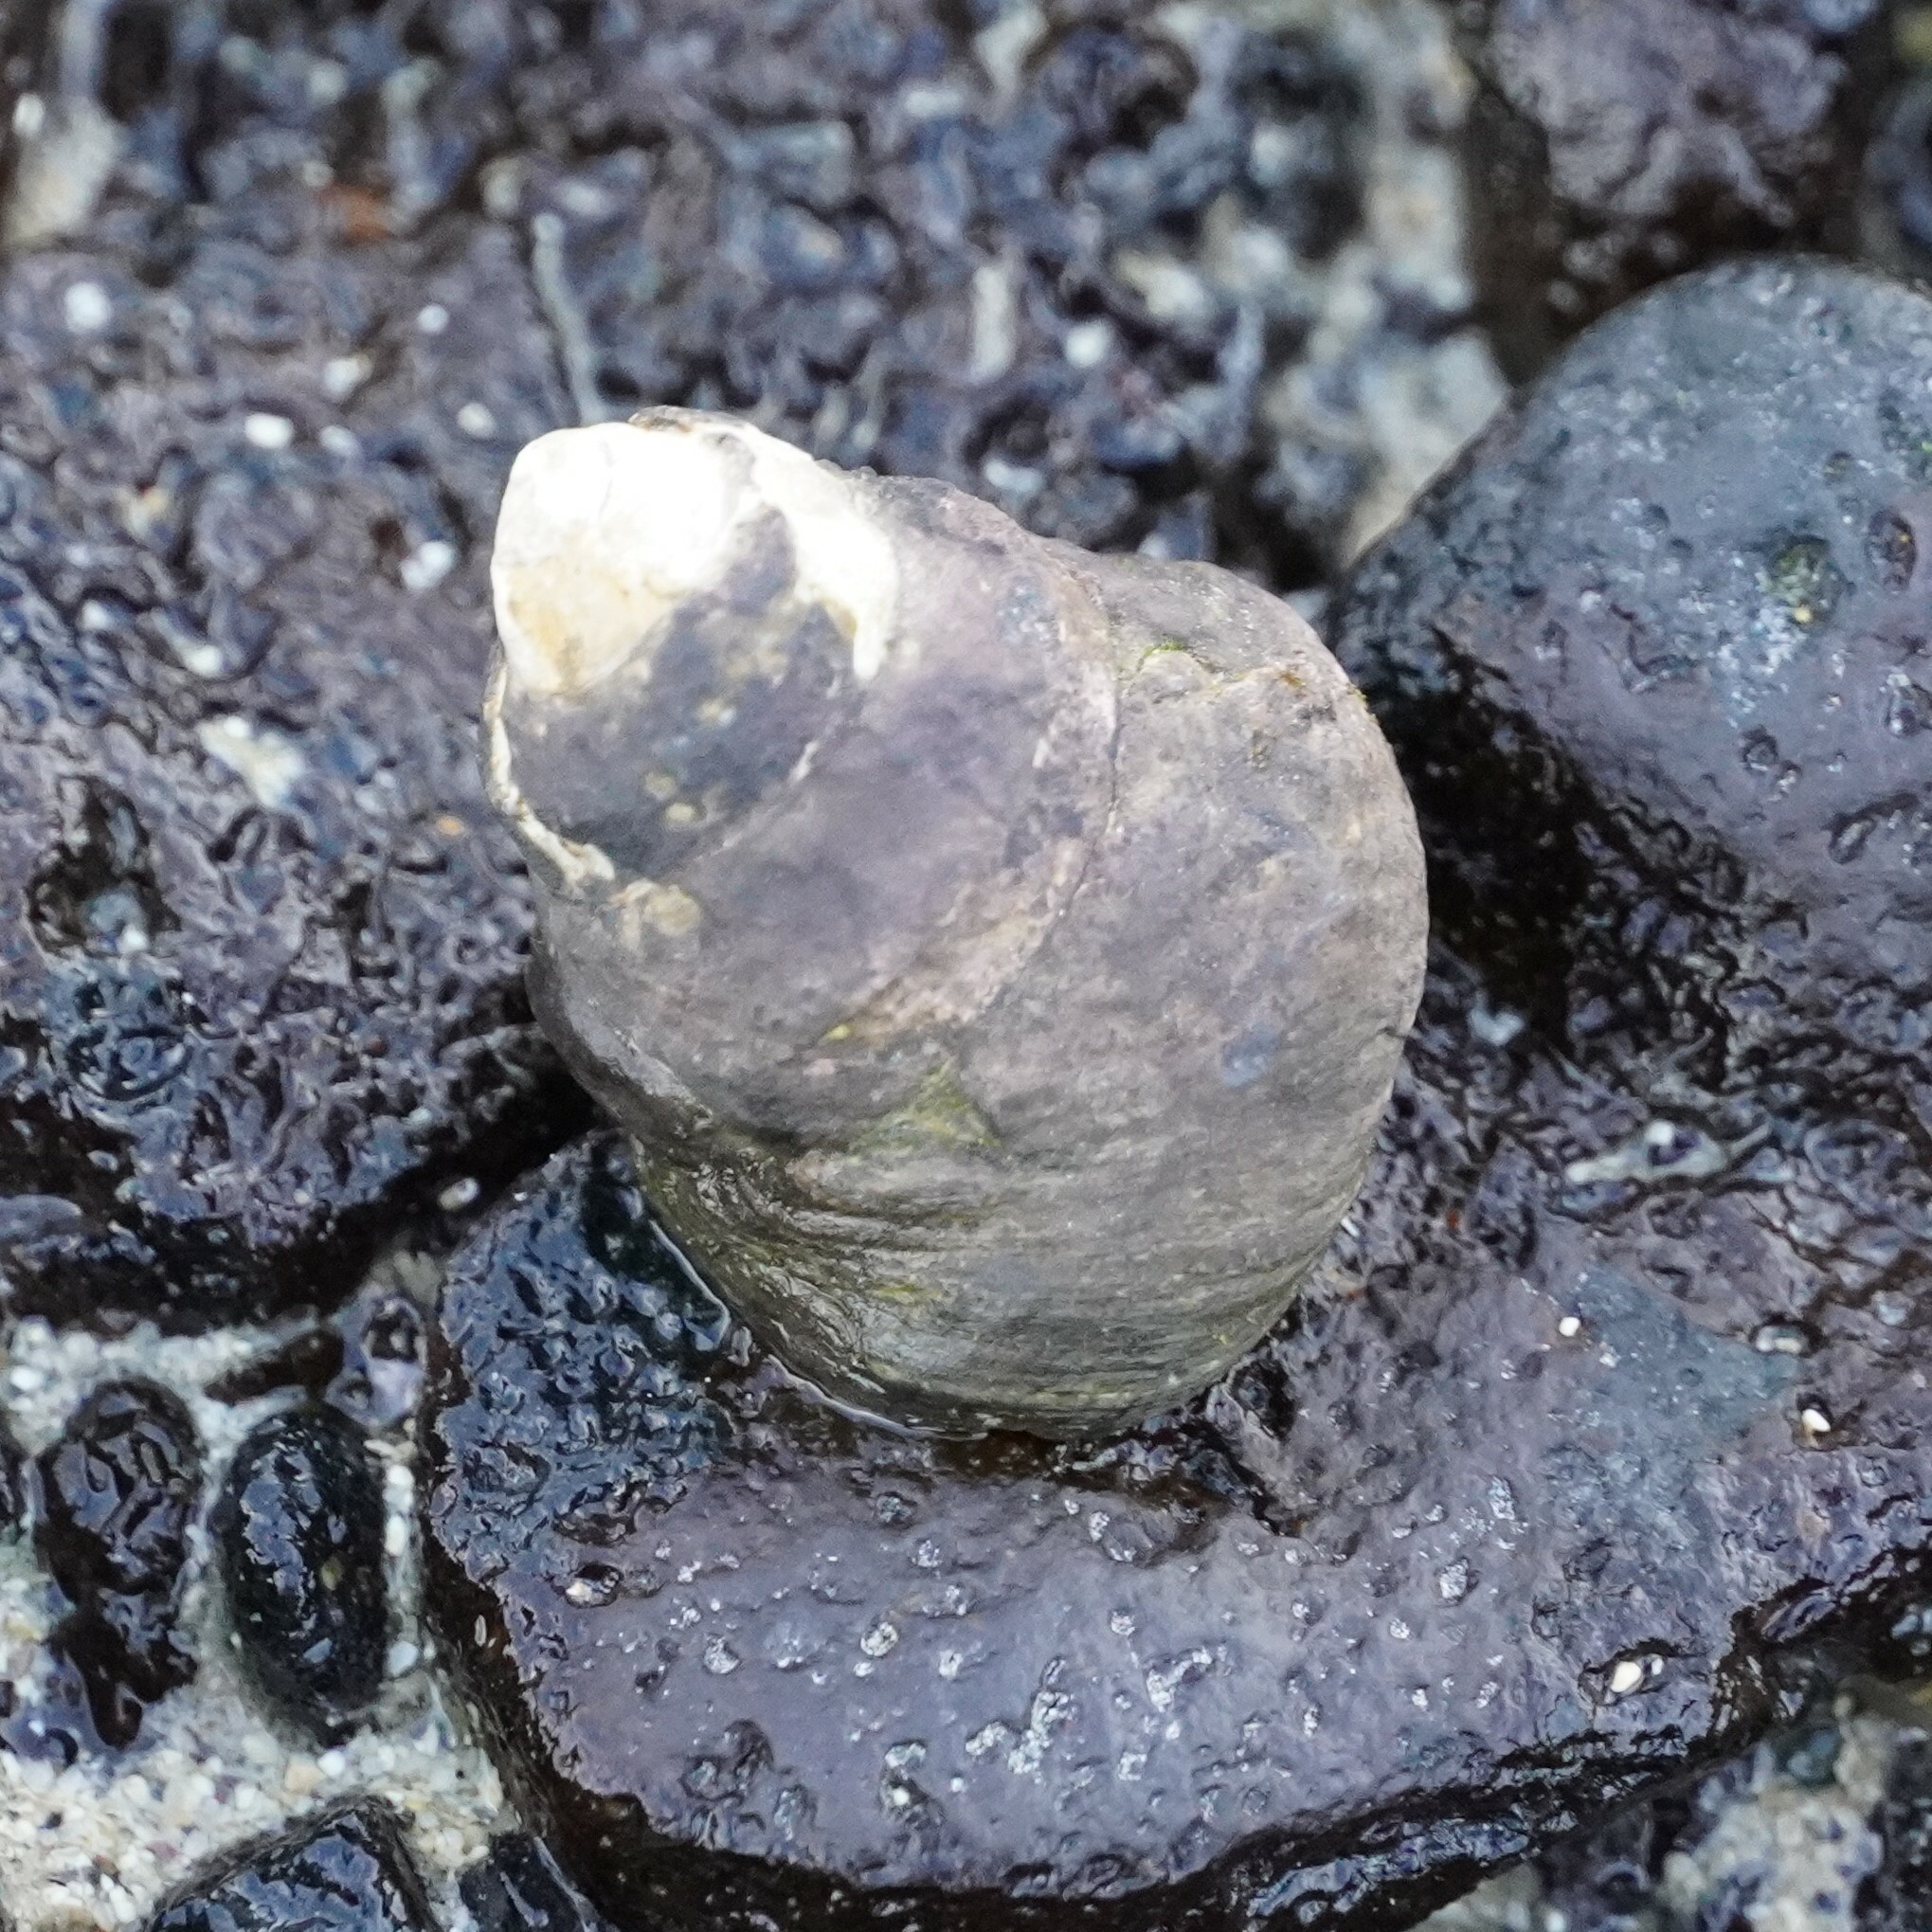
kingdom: Animalia
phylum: Mollusca
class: Gastropoda
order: Trochida
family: Trochidae
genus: Phorcus
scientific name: Phorcus atratus
